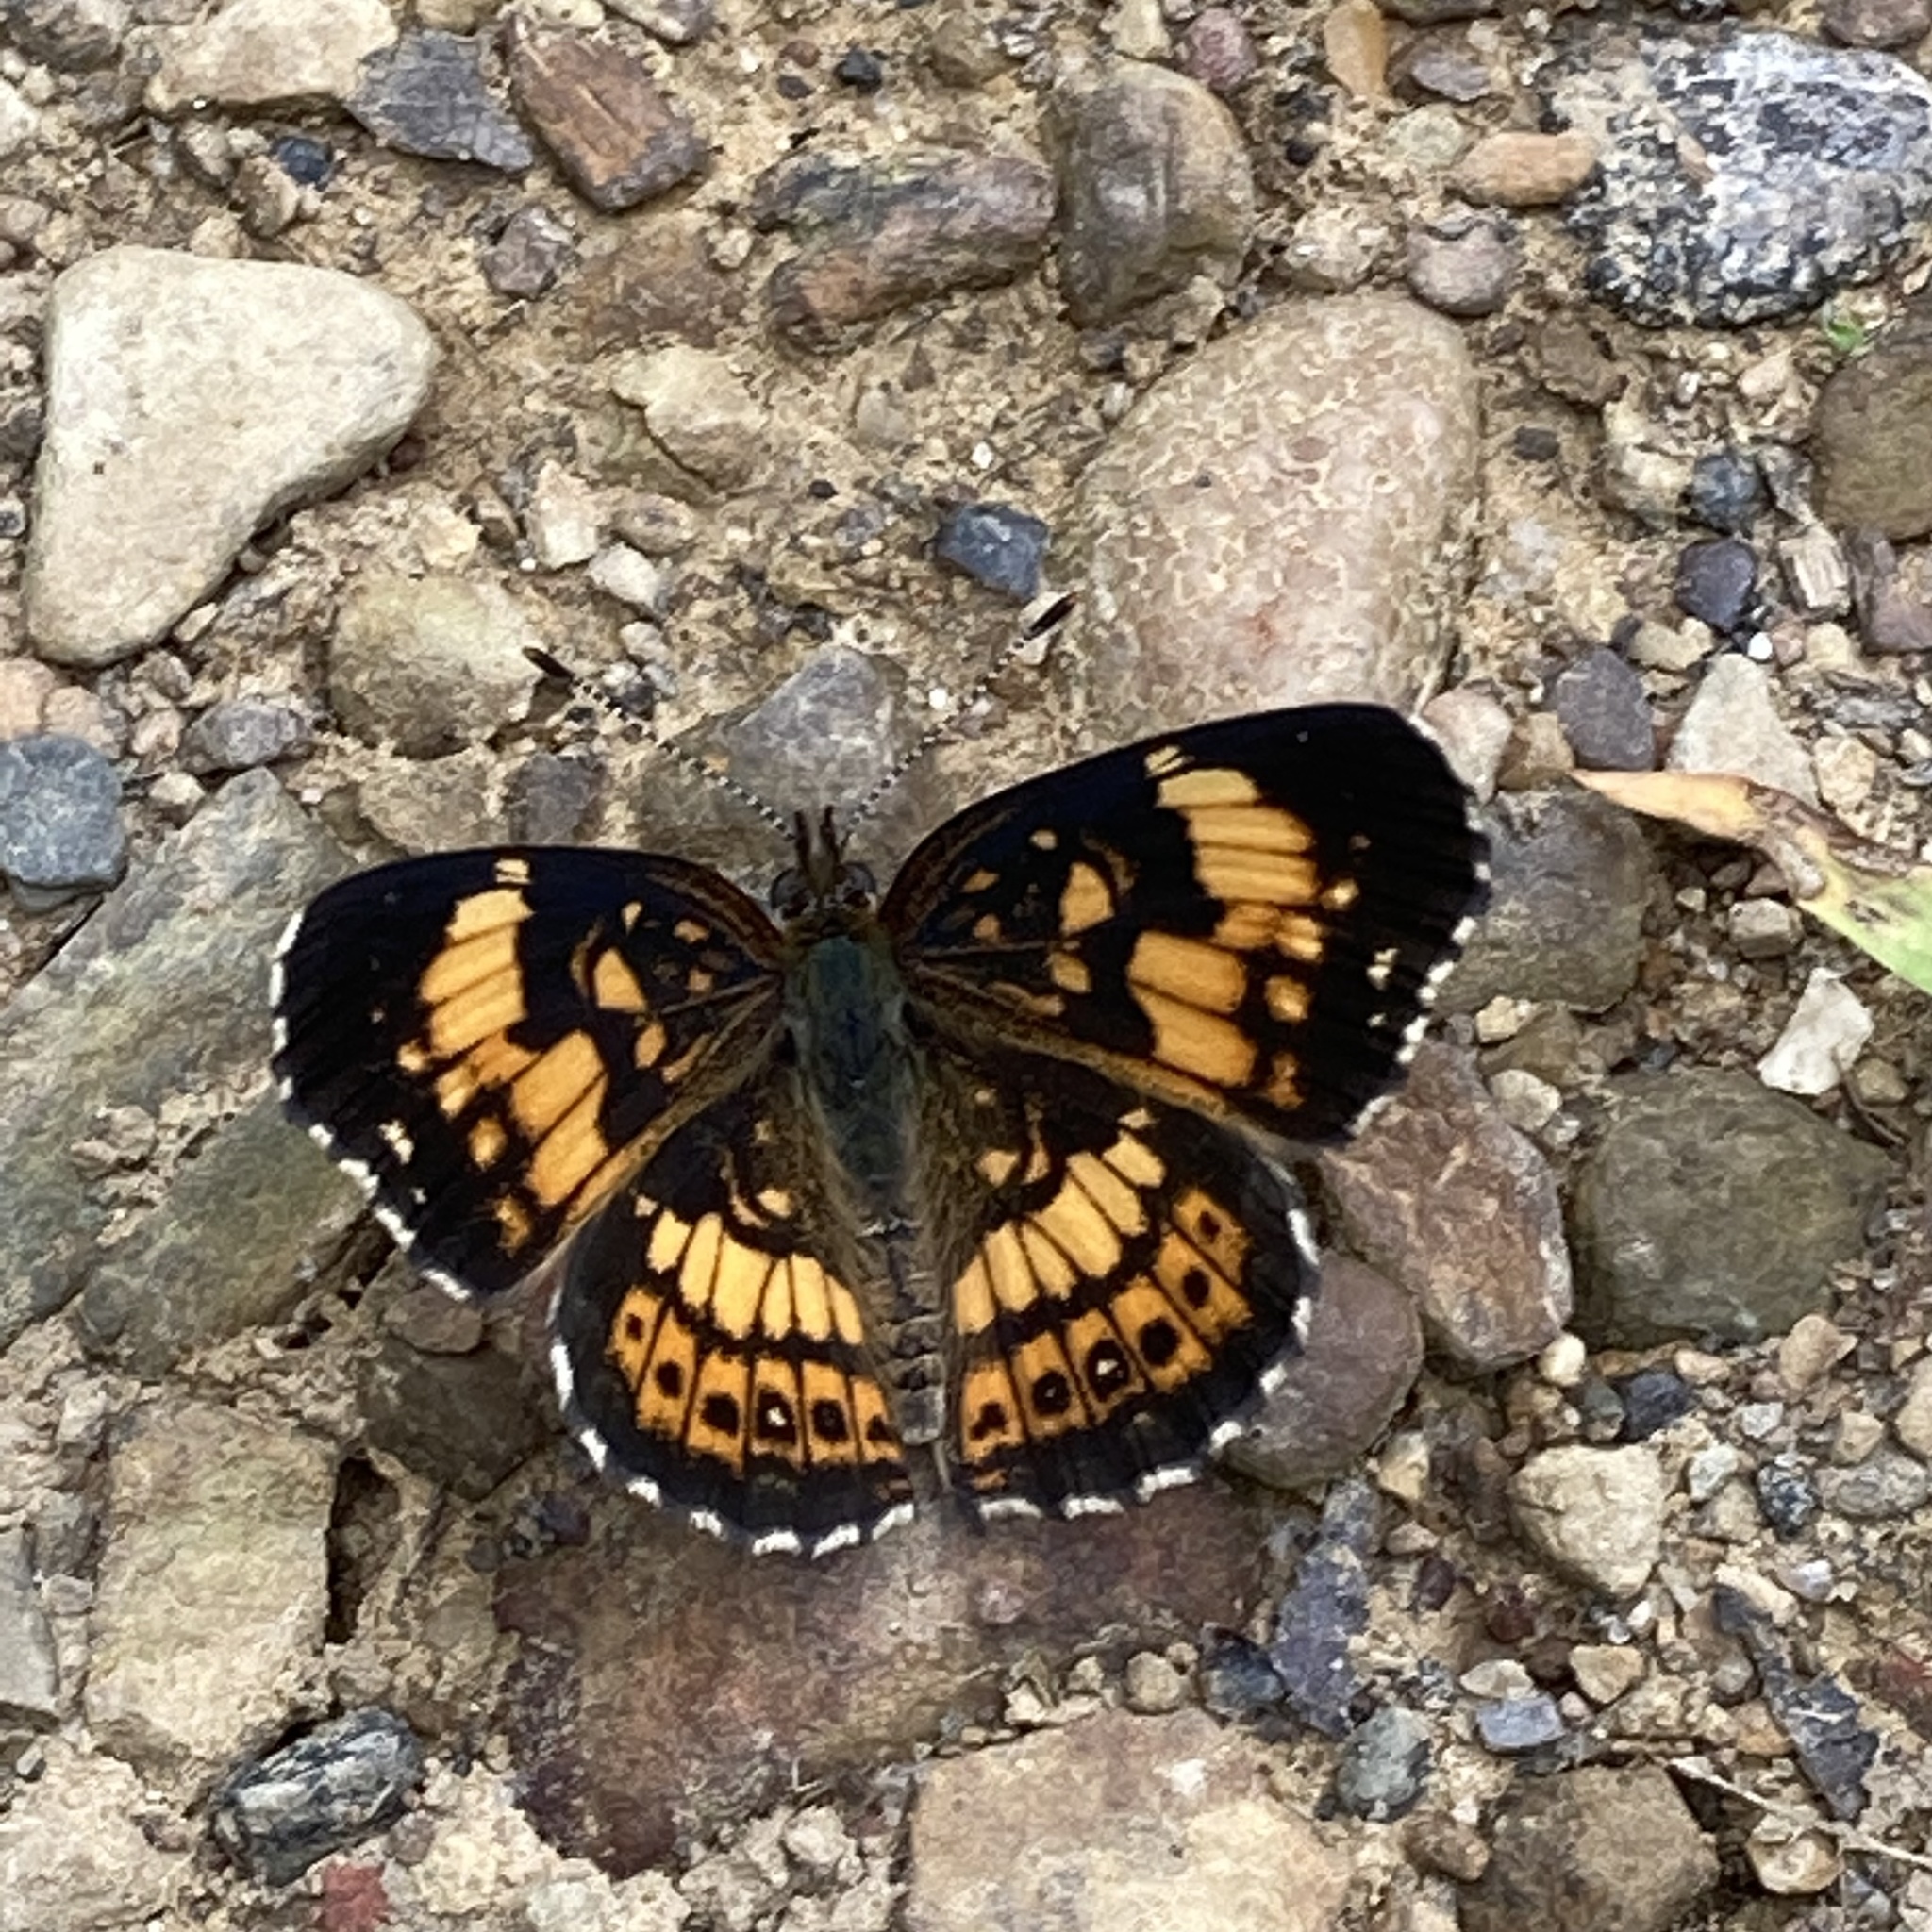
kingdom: Animalia
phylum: Arthropoda
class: Insecta
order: Lepidoptera
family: Nymphalidae
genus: Chlosyne
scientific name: Chlosyne nycteis
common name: Silvery checkerspot
